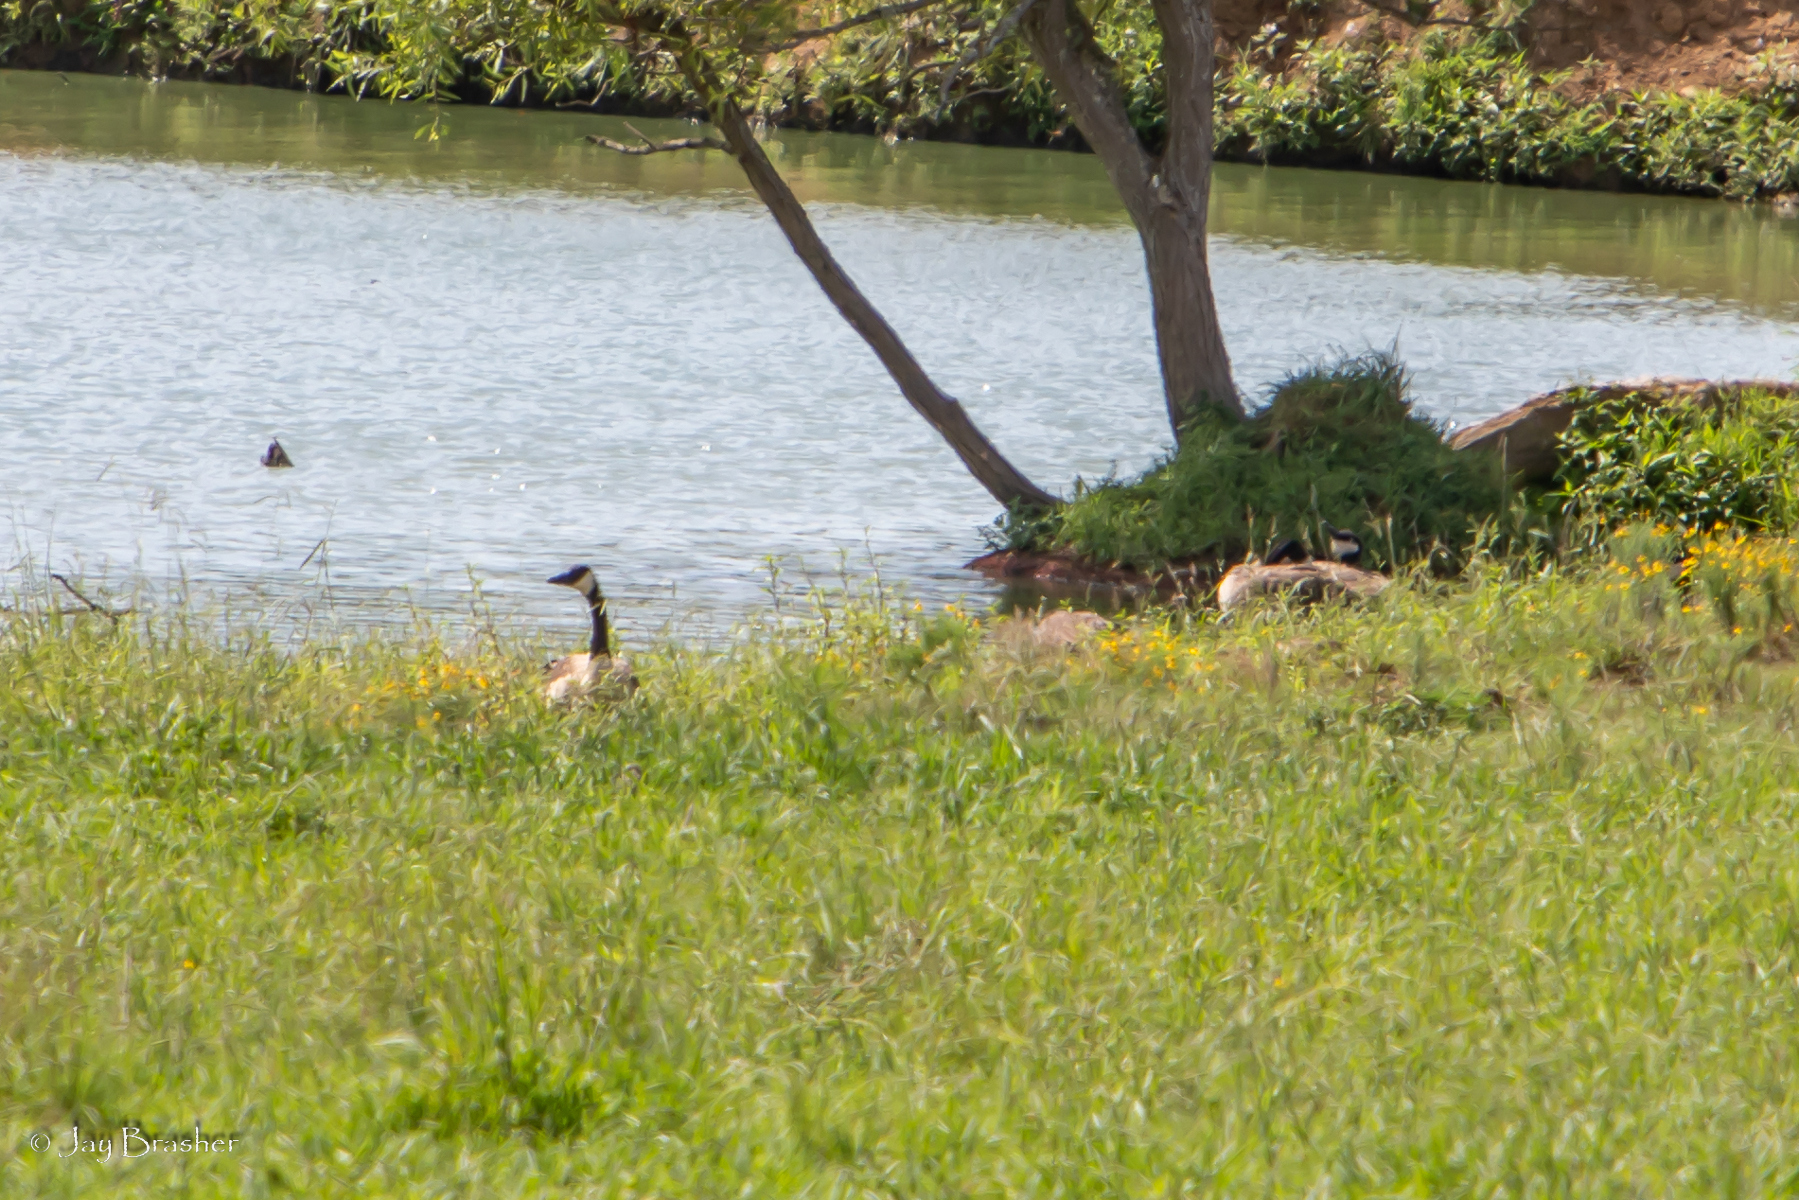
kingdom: Animalia
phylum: Chordata
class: Aves
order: Anseriformes
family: Anatidae
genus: Branta
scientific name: Branta canadensis
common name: Canada goose
